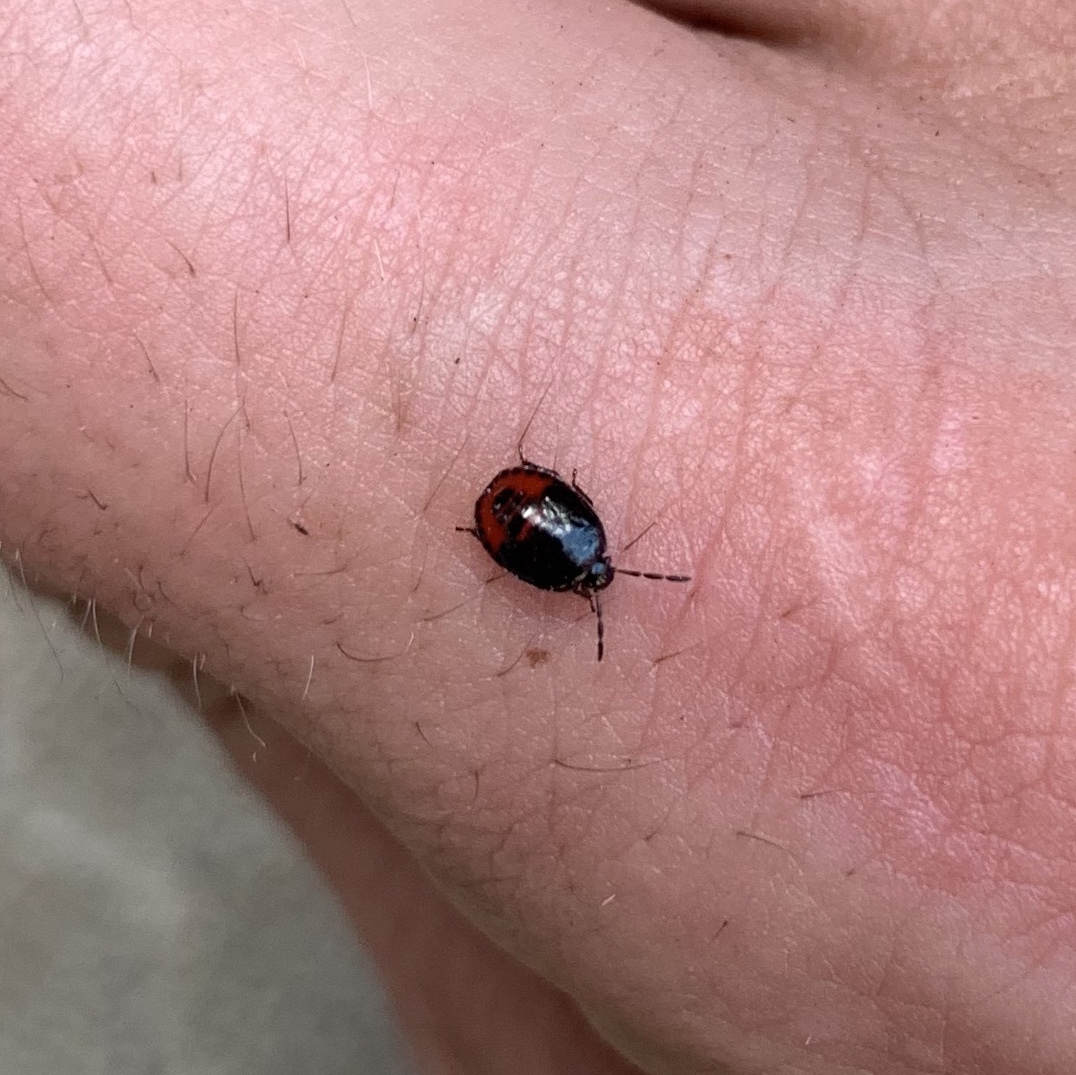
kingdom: Animalia
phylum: Arthropoda
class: Insecta
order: Hemiptera
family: Cydnidae
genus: Sehirus
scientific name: Sehirus cinctus
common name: White-margined burrower bug
